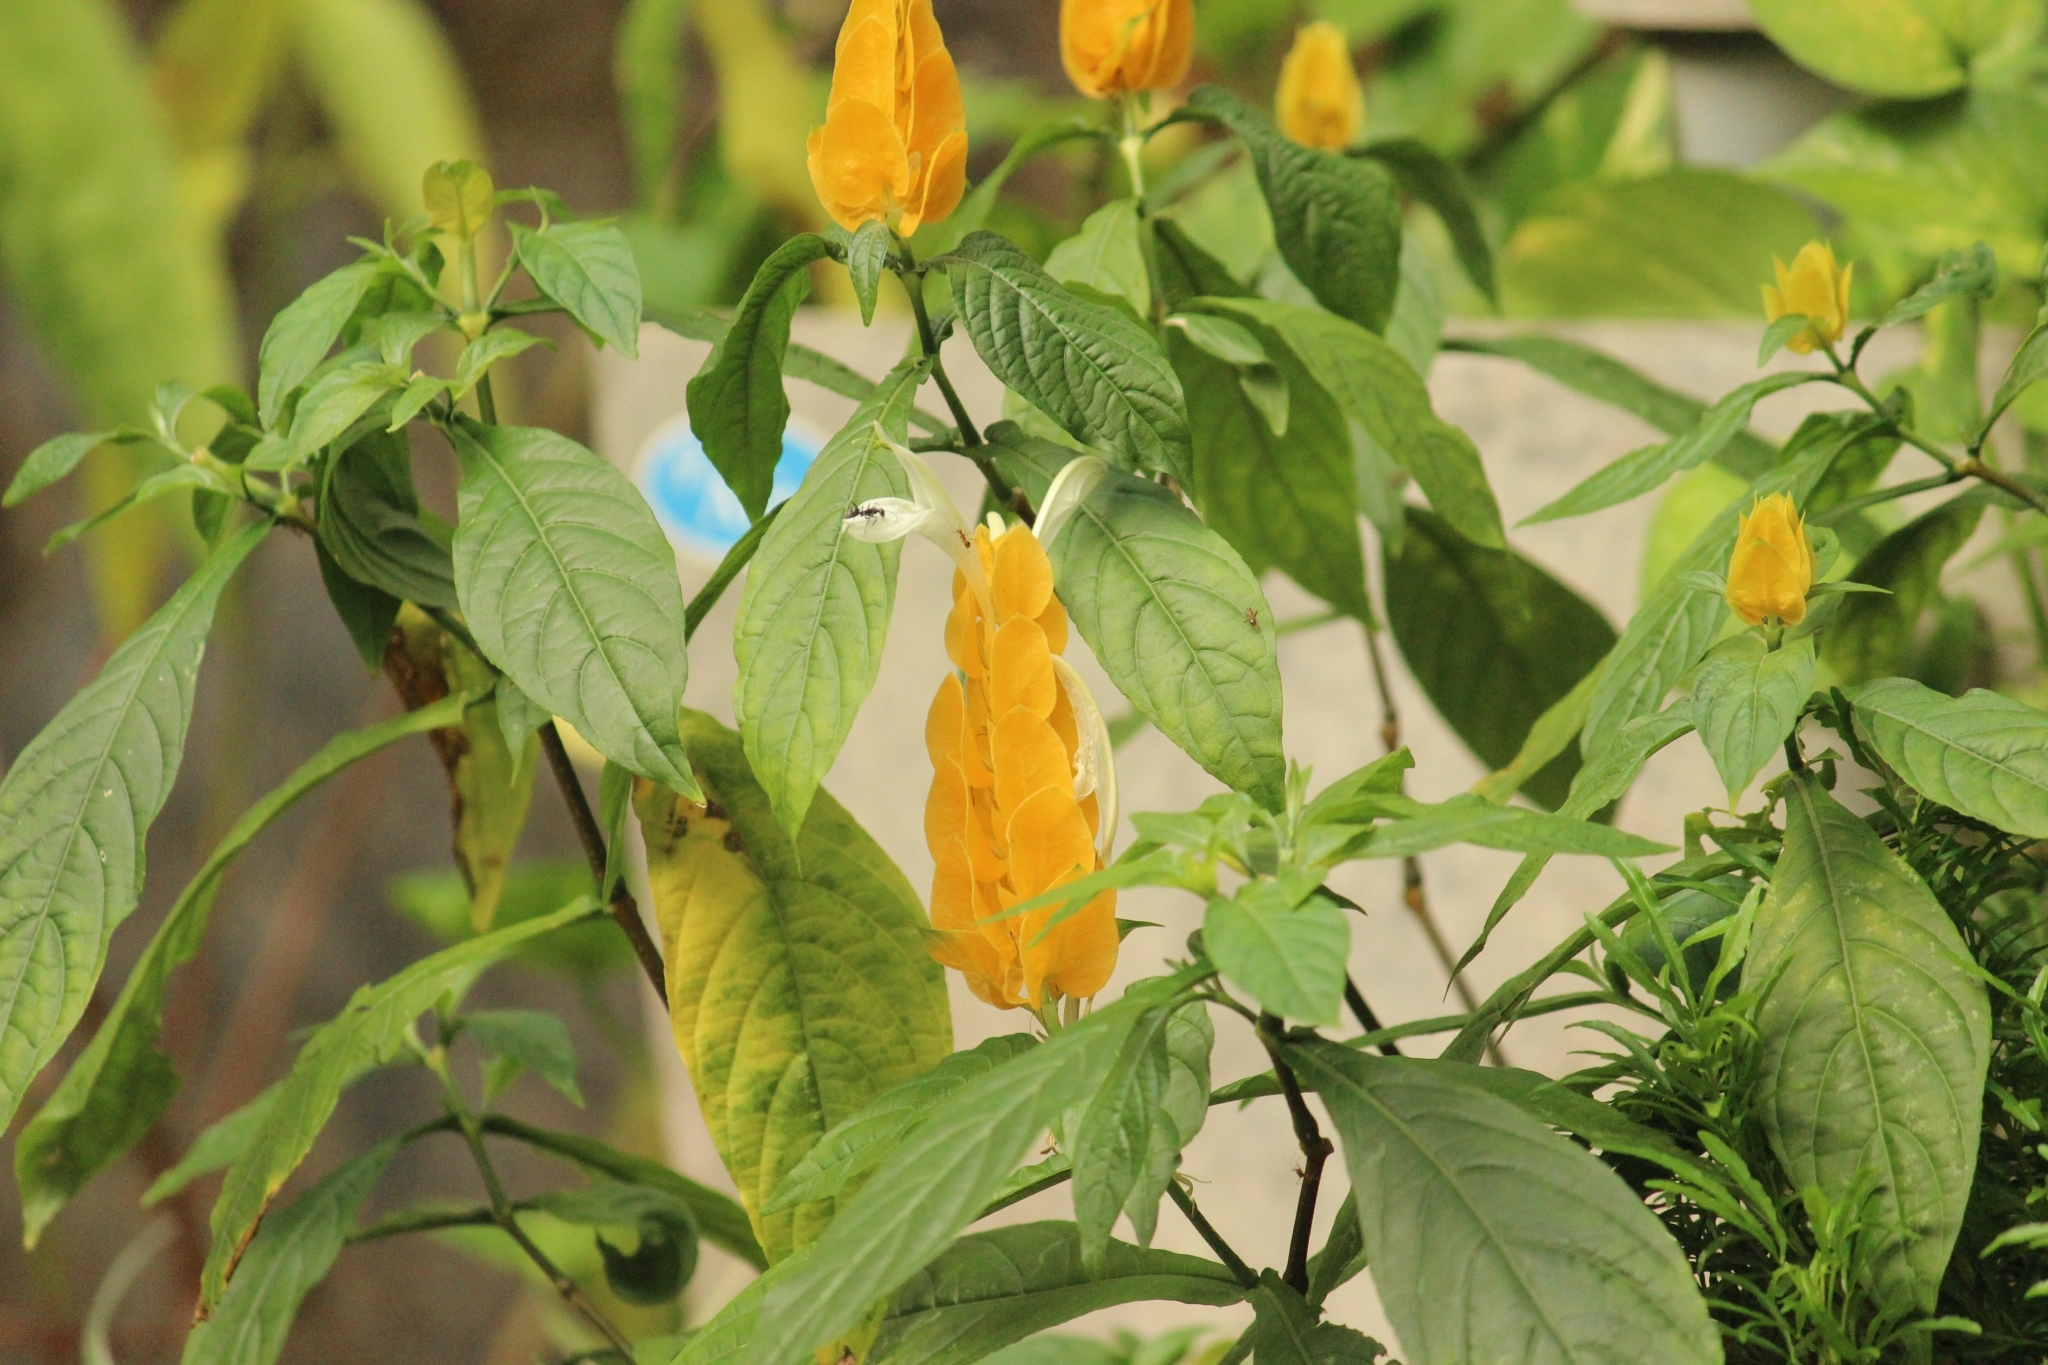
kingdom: Plantae
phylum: Tracheophyta
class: Magnoliopsida
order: Lamiales
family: Acanthaceae
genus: Pachystachys
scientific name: Pachystachys lutea
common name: Golden shrimp-plant
